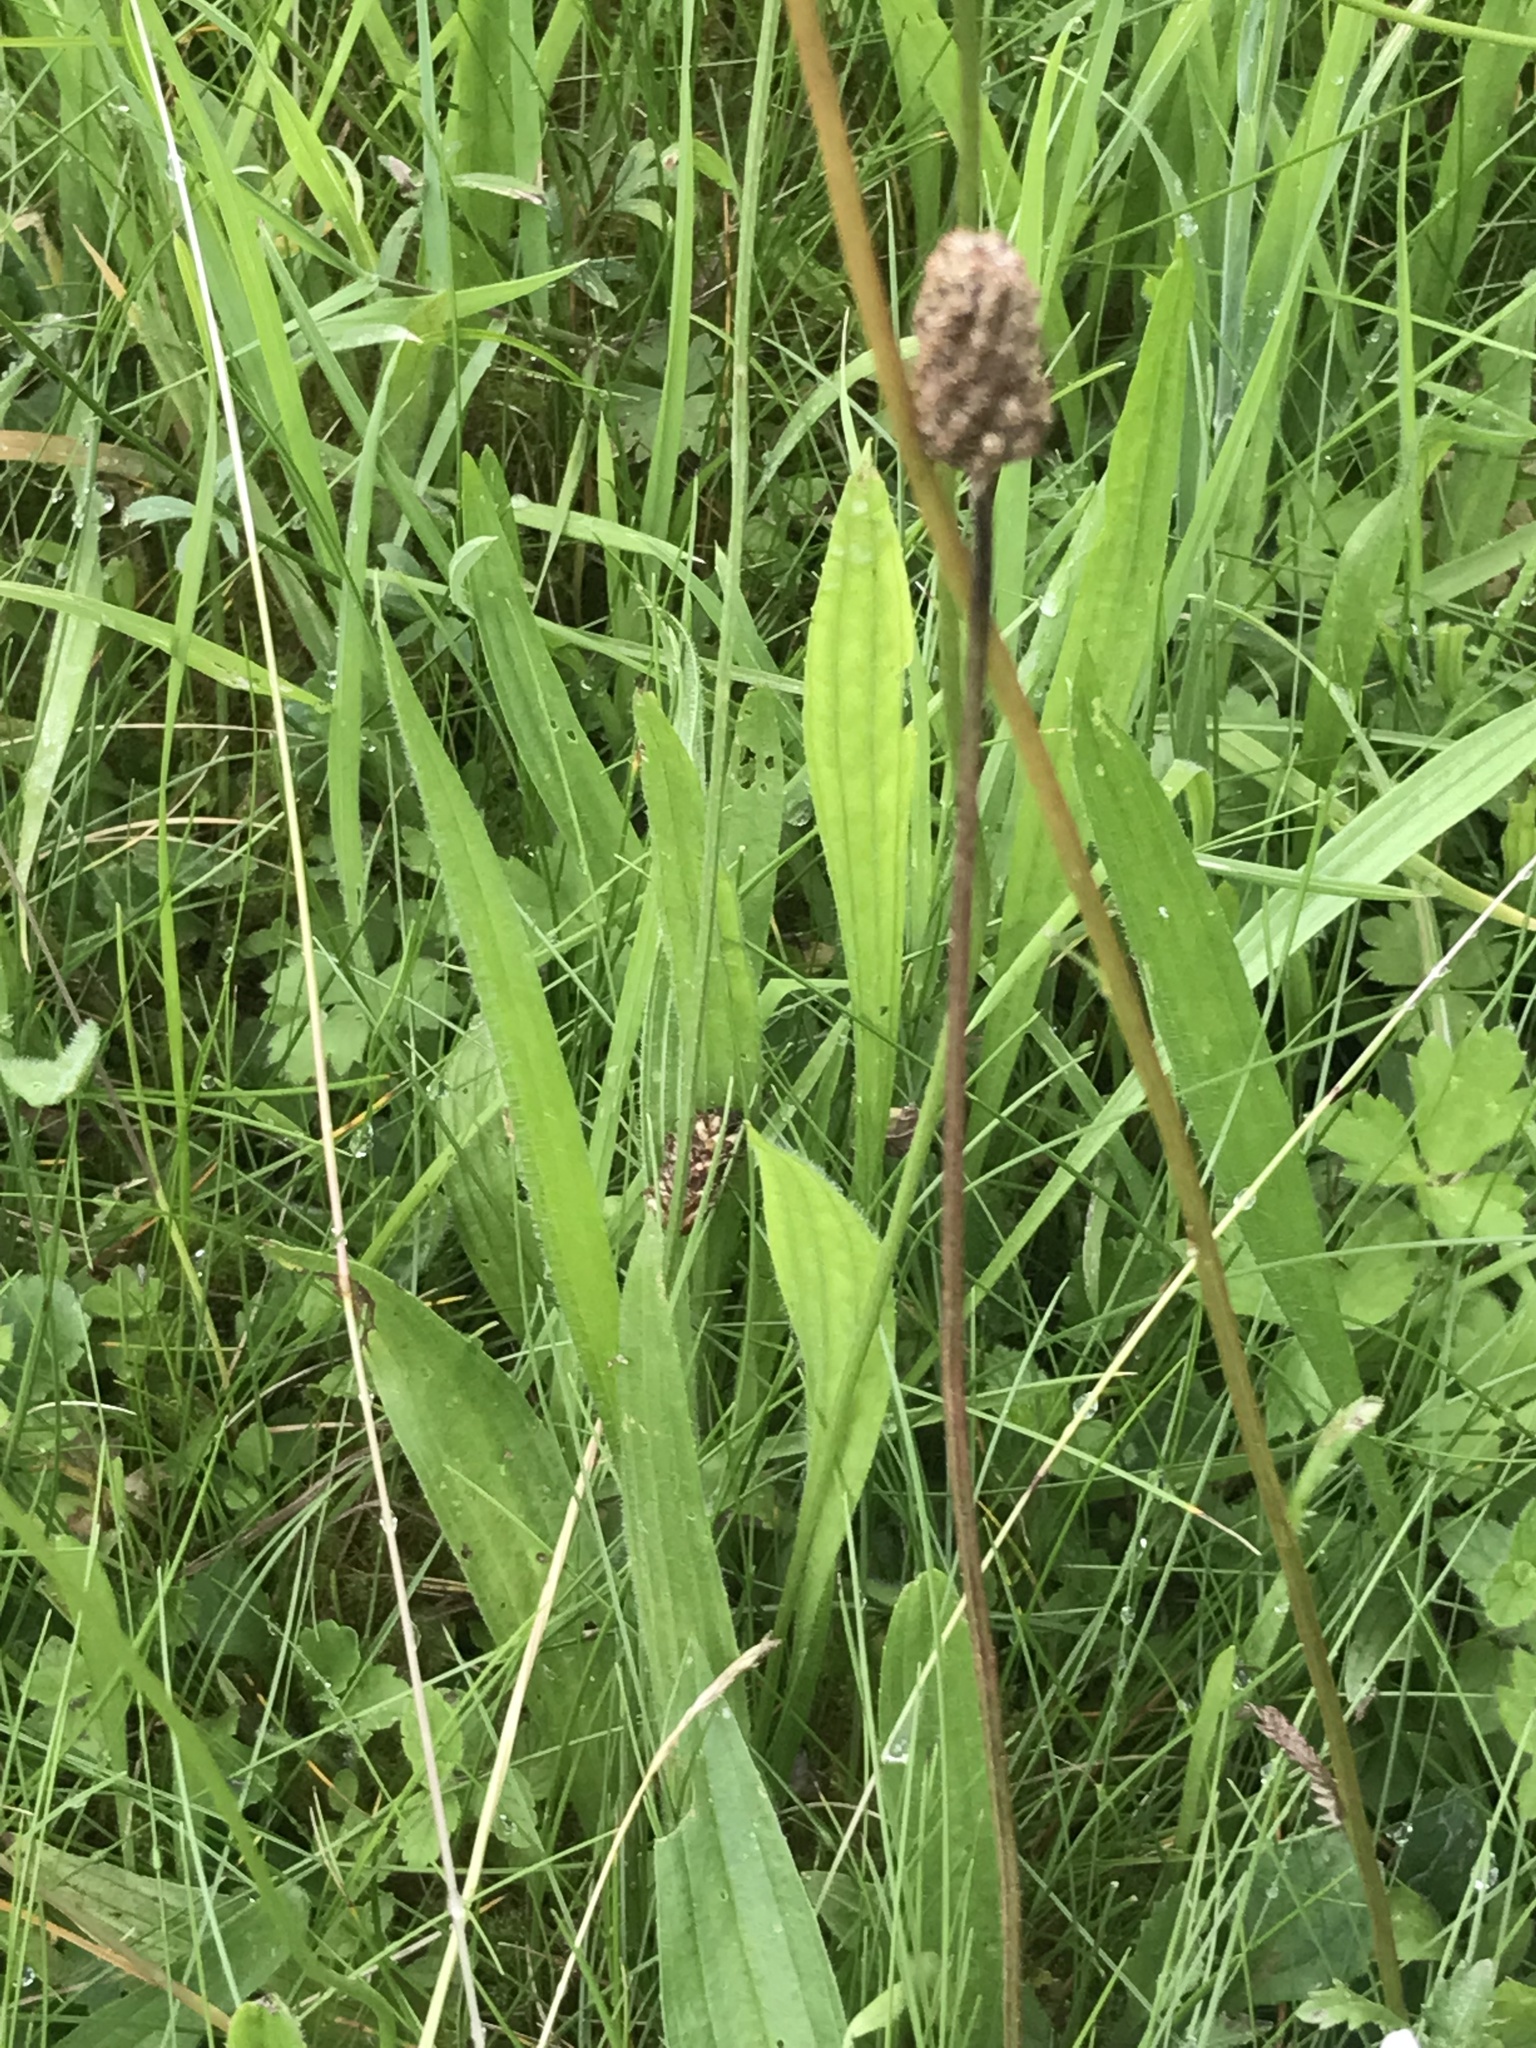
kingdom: Plantae
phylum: Tracheophyta
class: Magnoliopsida
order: Lamiales
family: Plantaginaceae
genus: Plantago
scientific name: Plantago lanceolata
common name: Ribwort plantain
